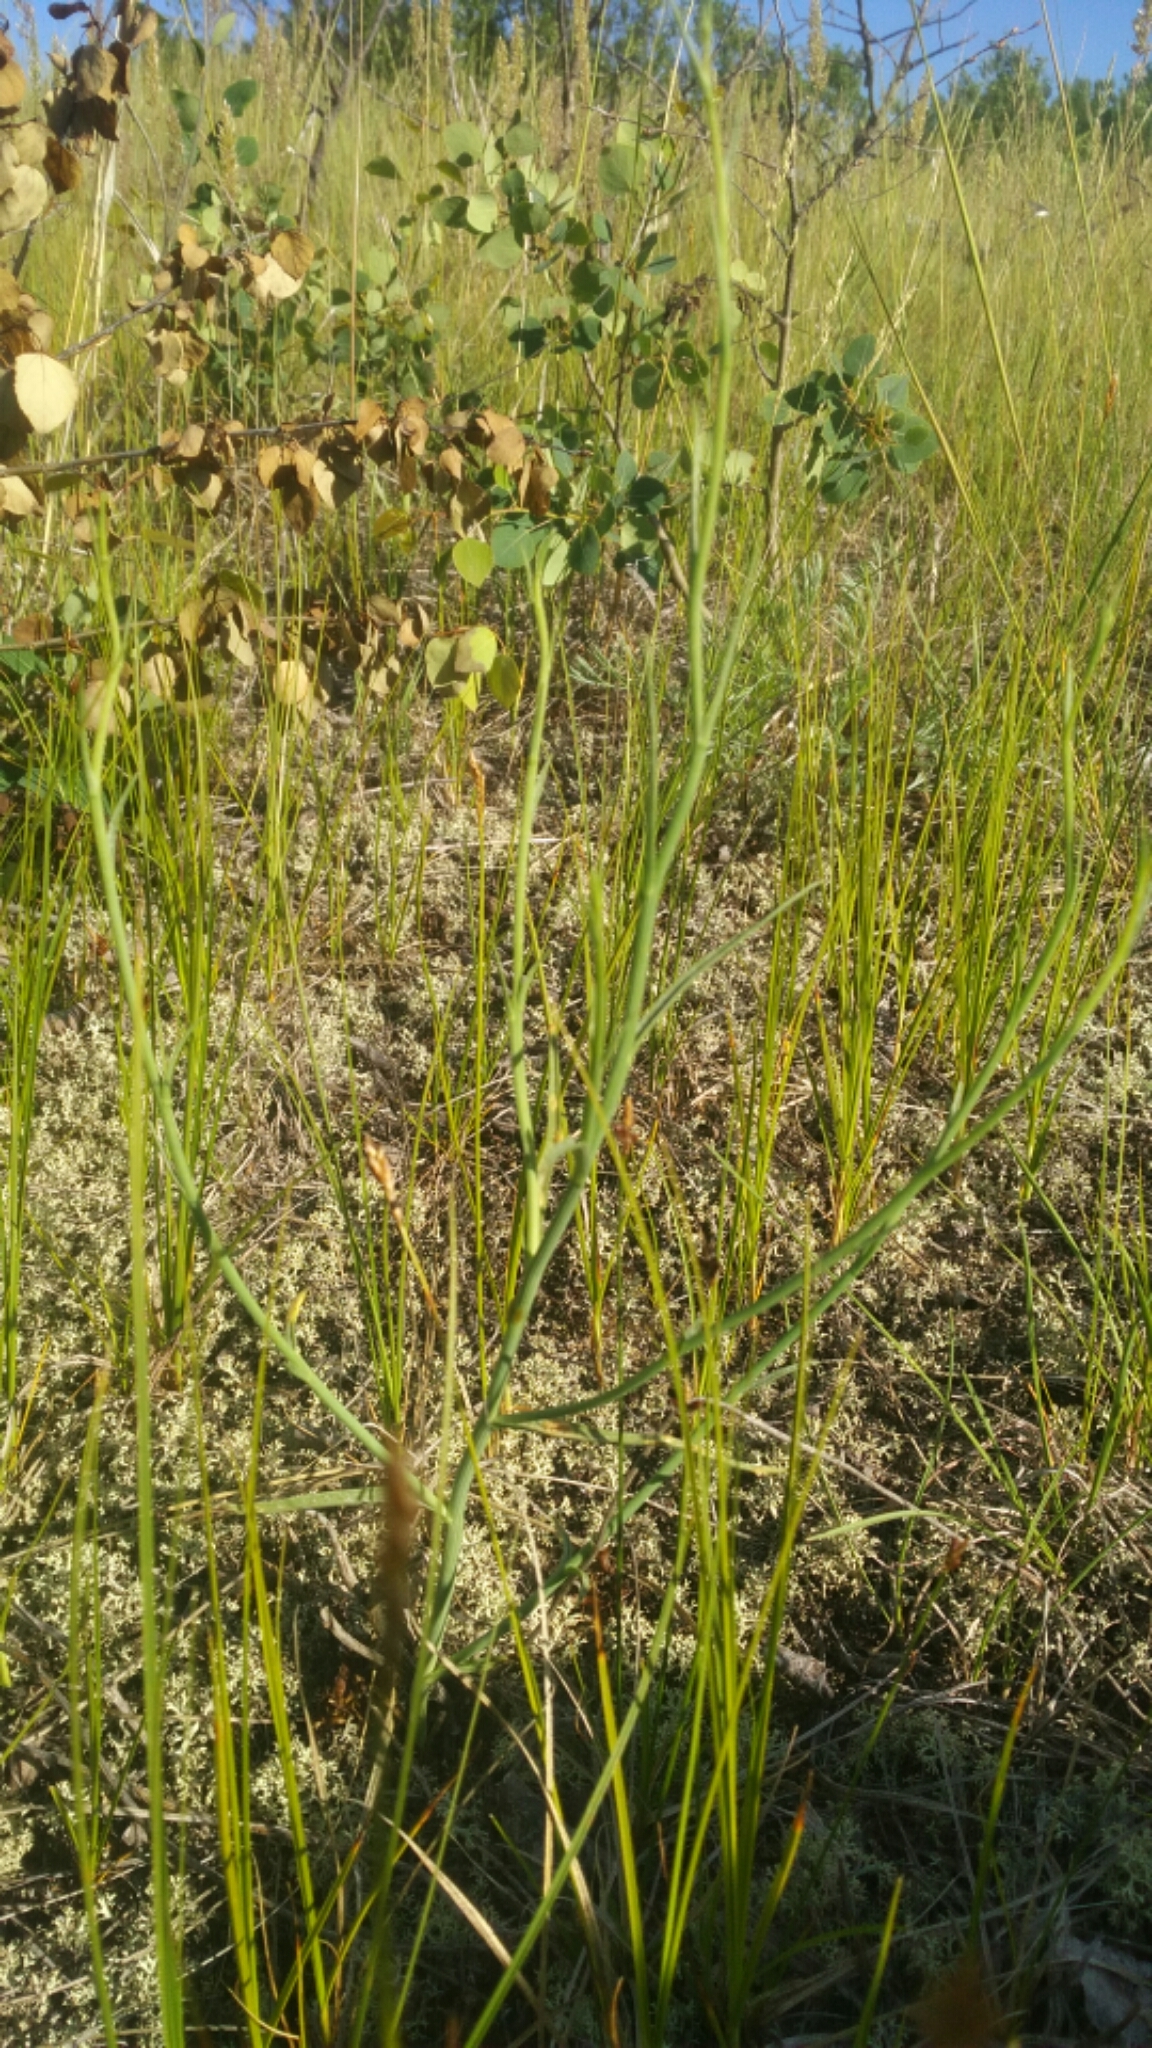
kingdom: Plantae
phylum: Tracheophyta
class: Magnoliopsida
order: Asterales
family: Asteraceae
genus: Lygodesmia
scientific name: Lygodesmia juncea
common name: Common skeletonweed
